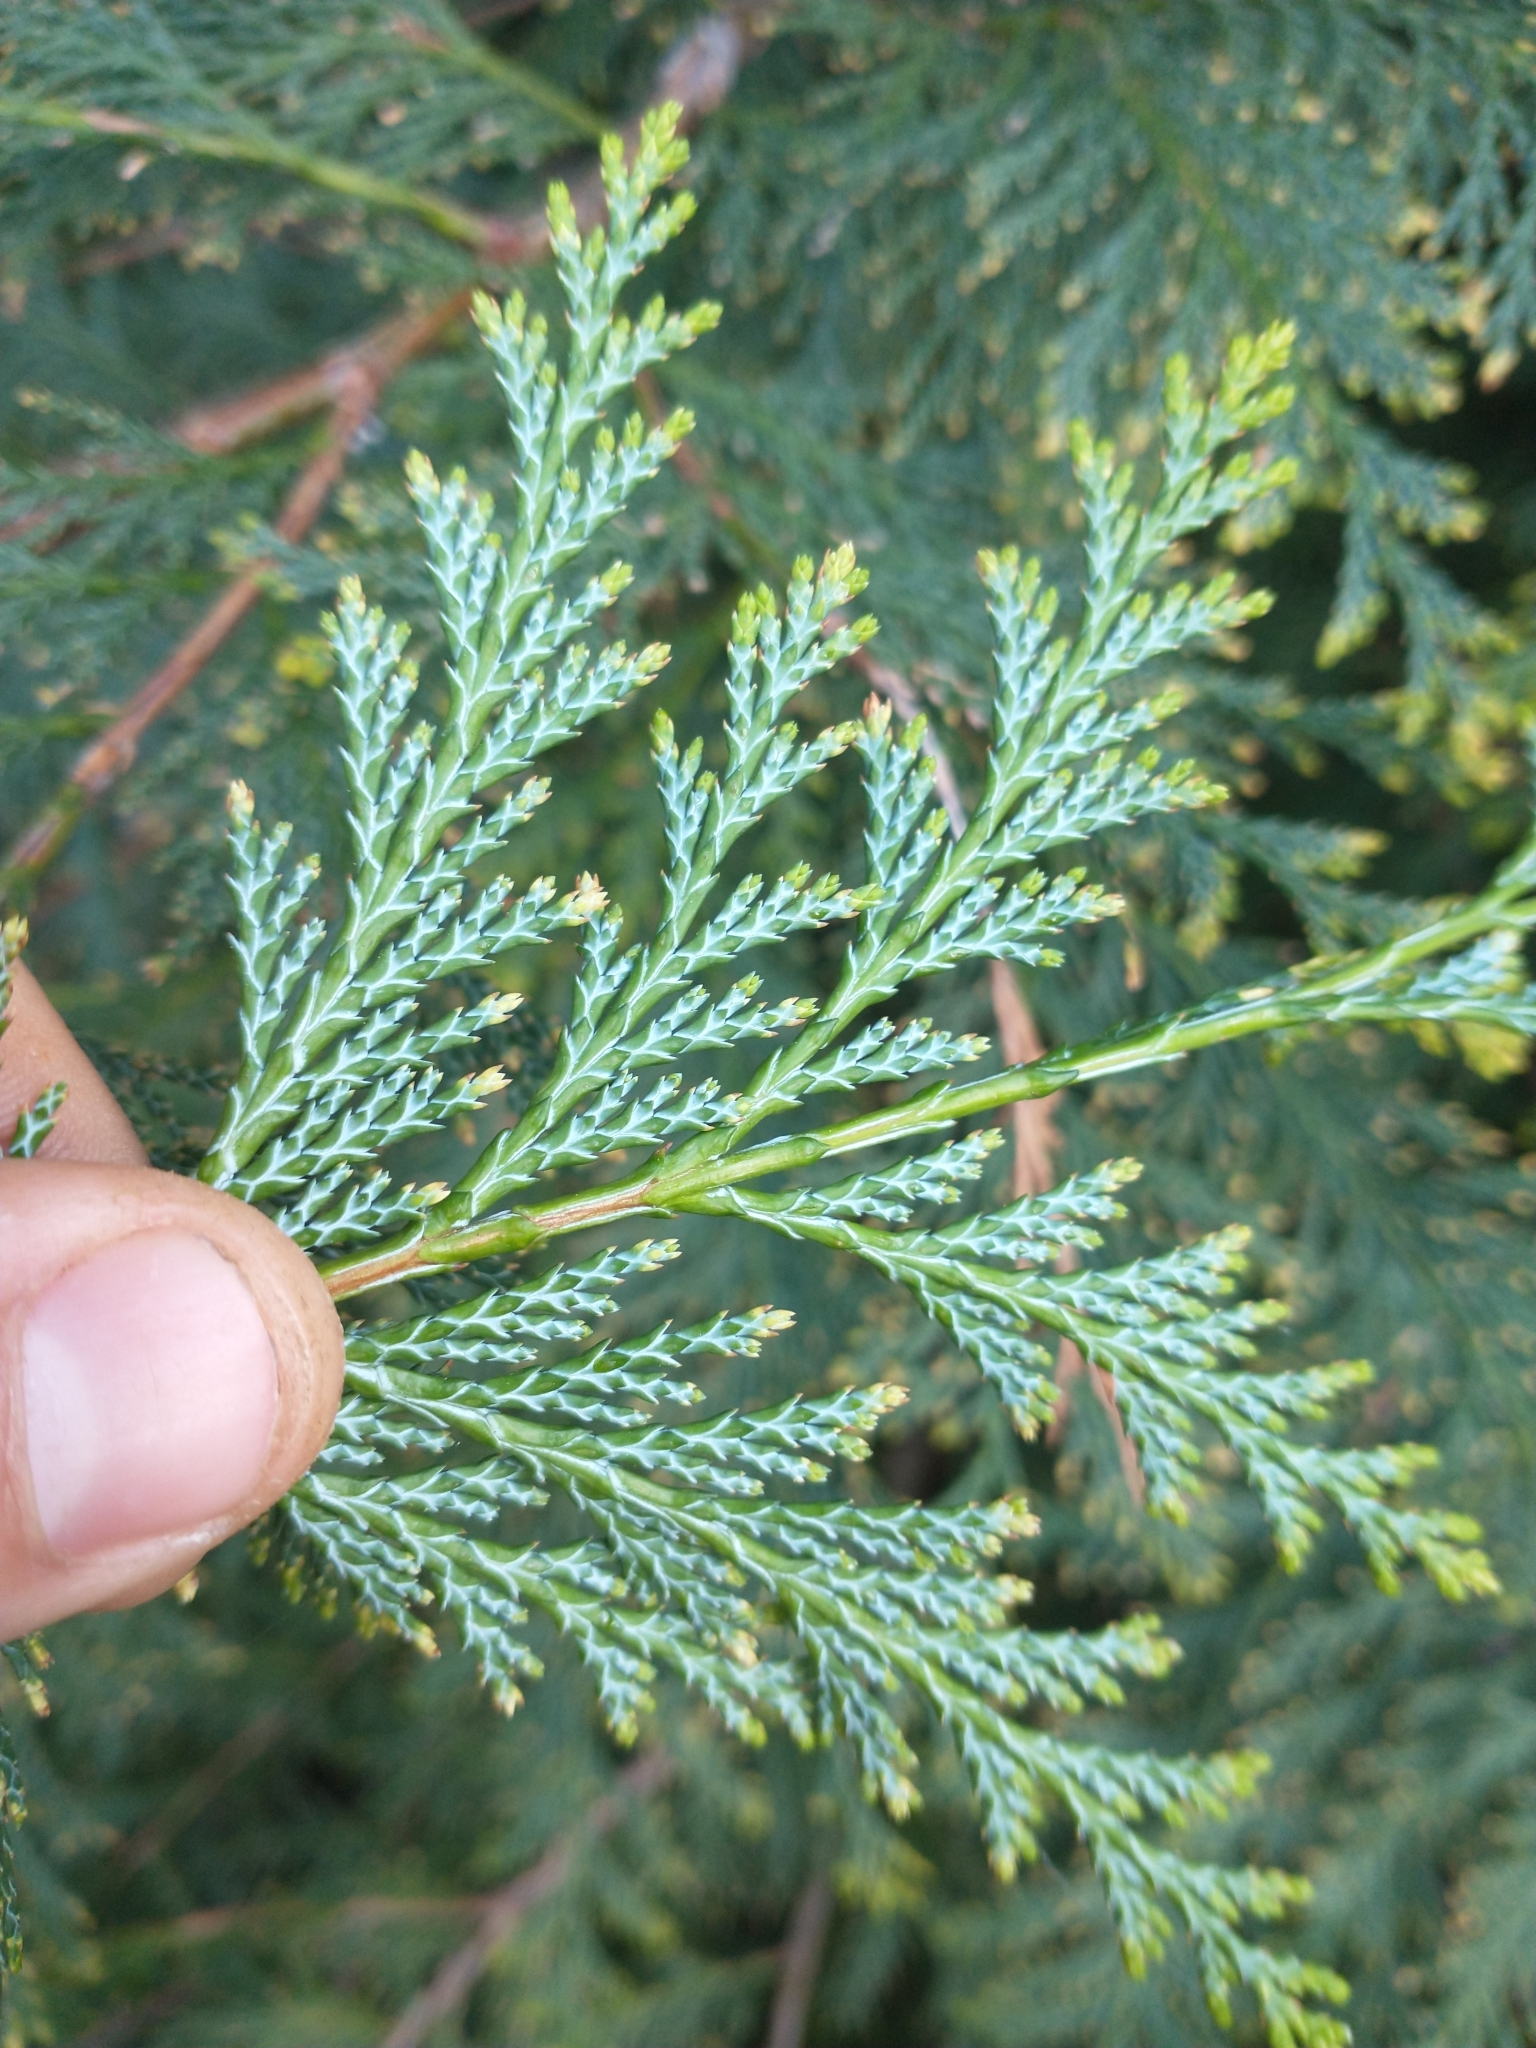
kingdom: Plantae
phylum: Tracheophyta
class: Pinopsida
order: Pinales
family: Cupressaceae
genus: Chamaecyparis
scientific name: Chamaecyparis lawsoniana
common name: Lawson's cypress
